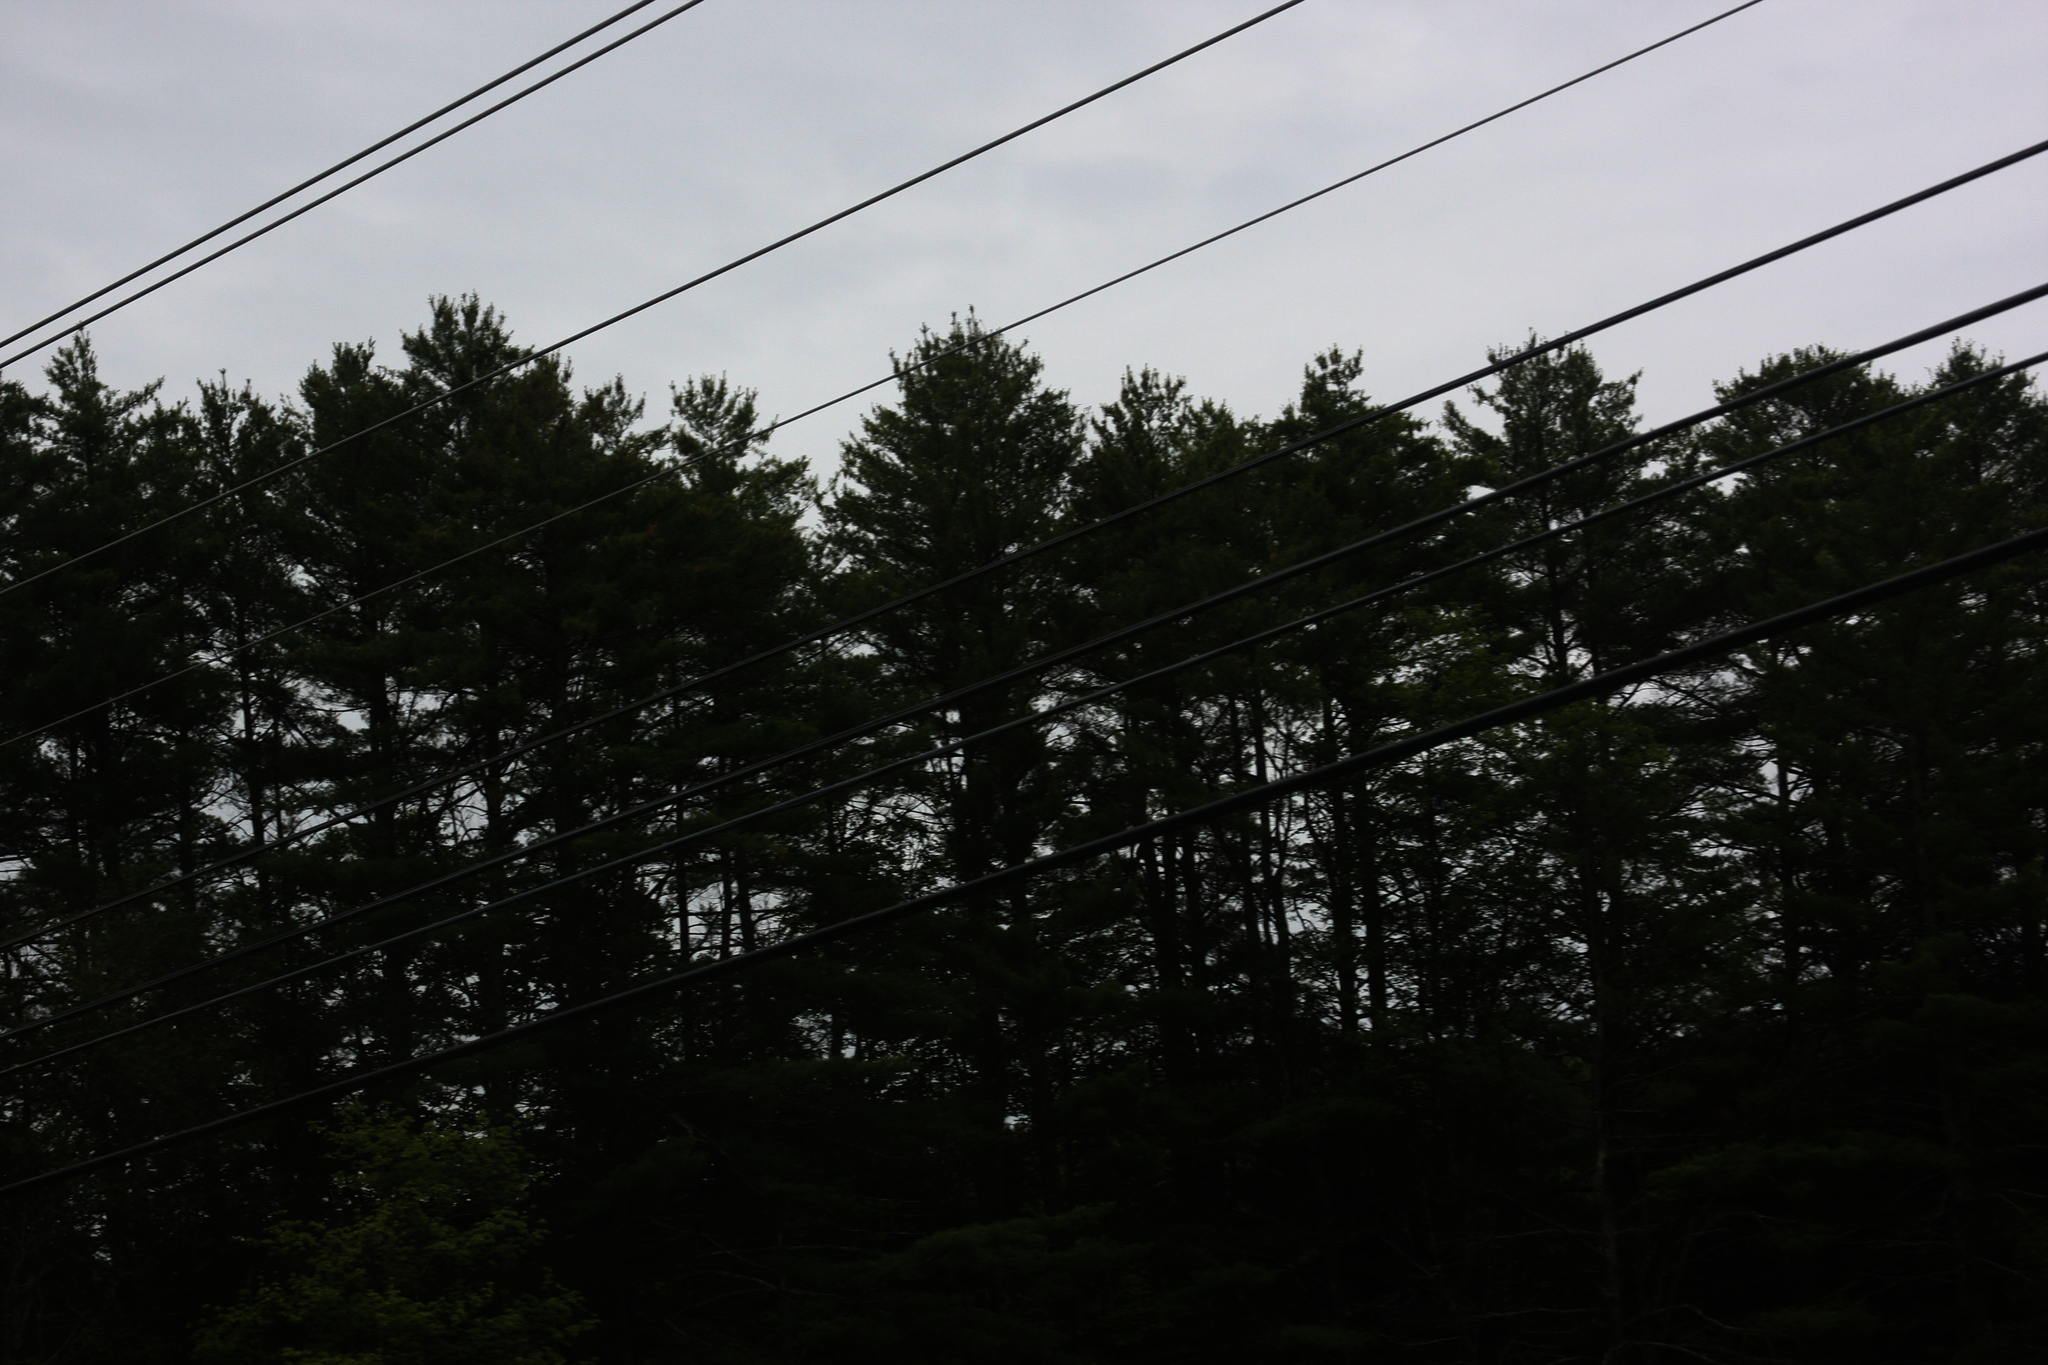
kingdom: Plantae
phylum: Tracheophyta
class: Pinopsida
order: Pinales
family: Pinaceae
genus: Pinus
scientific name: Pinus strobus
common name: Weymouth pine
